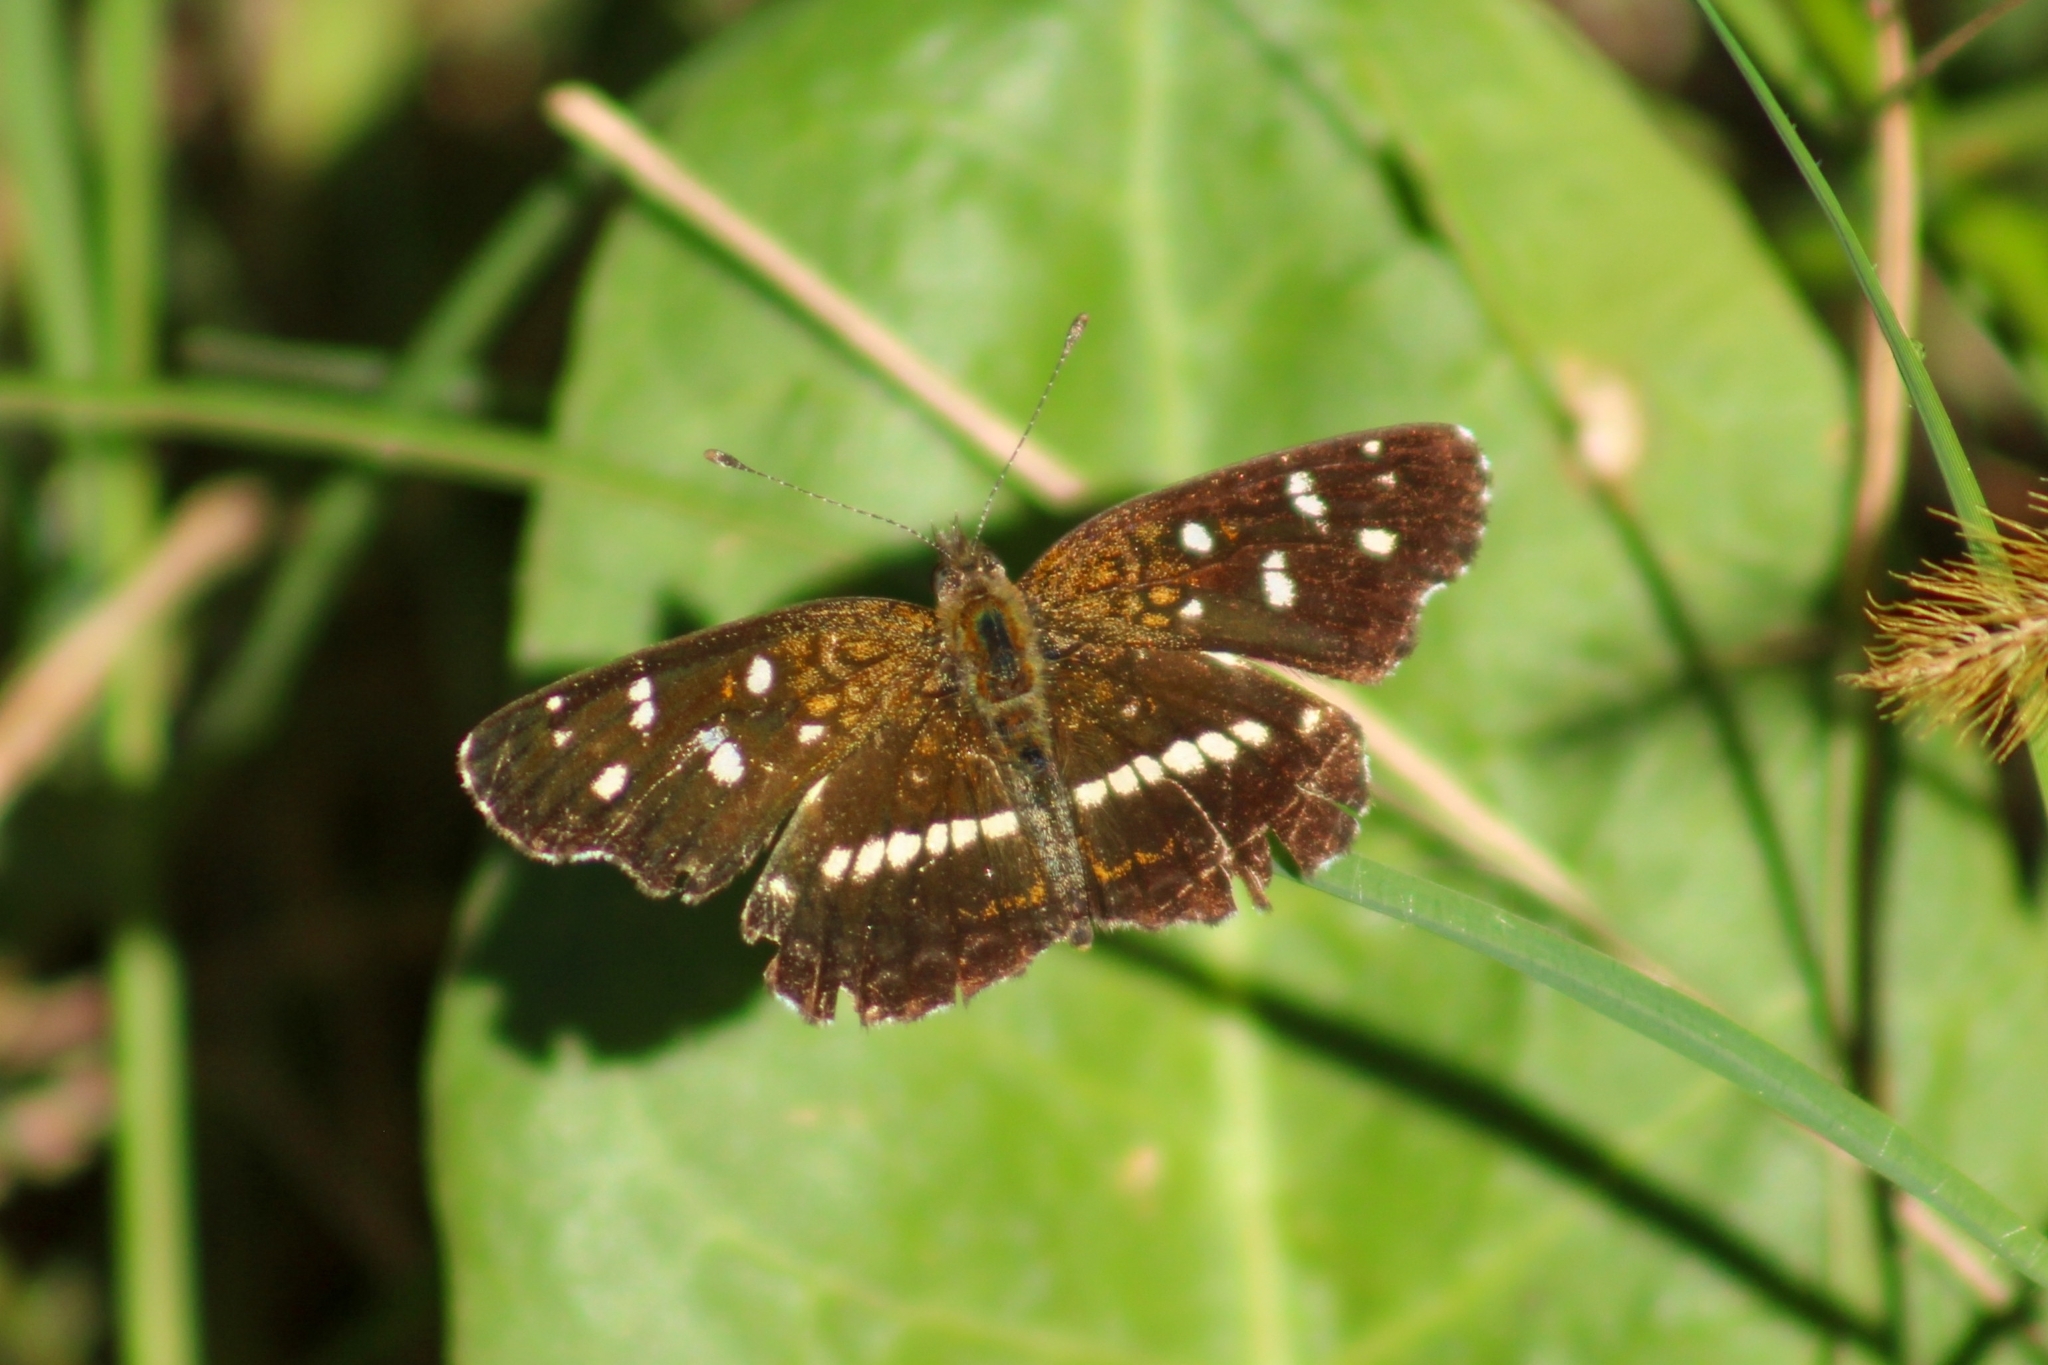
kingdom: Animalia
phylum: Arthropoda
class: Insecta
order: Lepidoptera
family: Nymphalidae
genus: Ortilia
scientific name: Ortilia ithra
